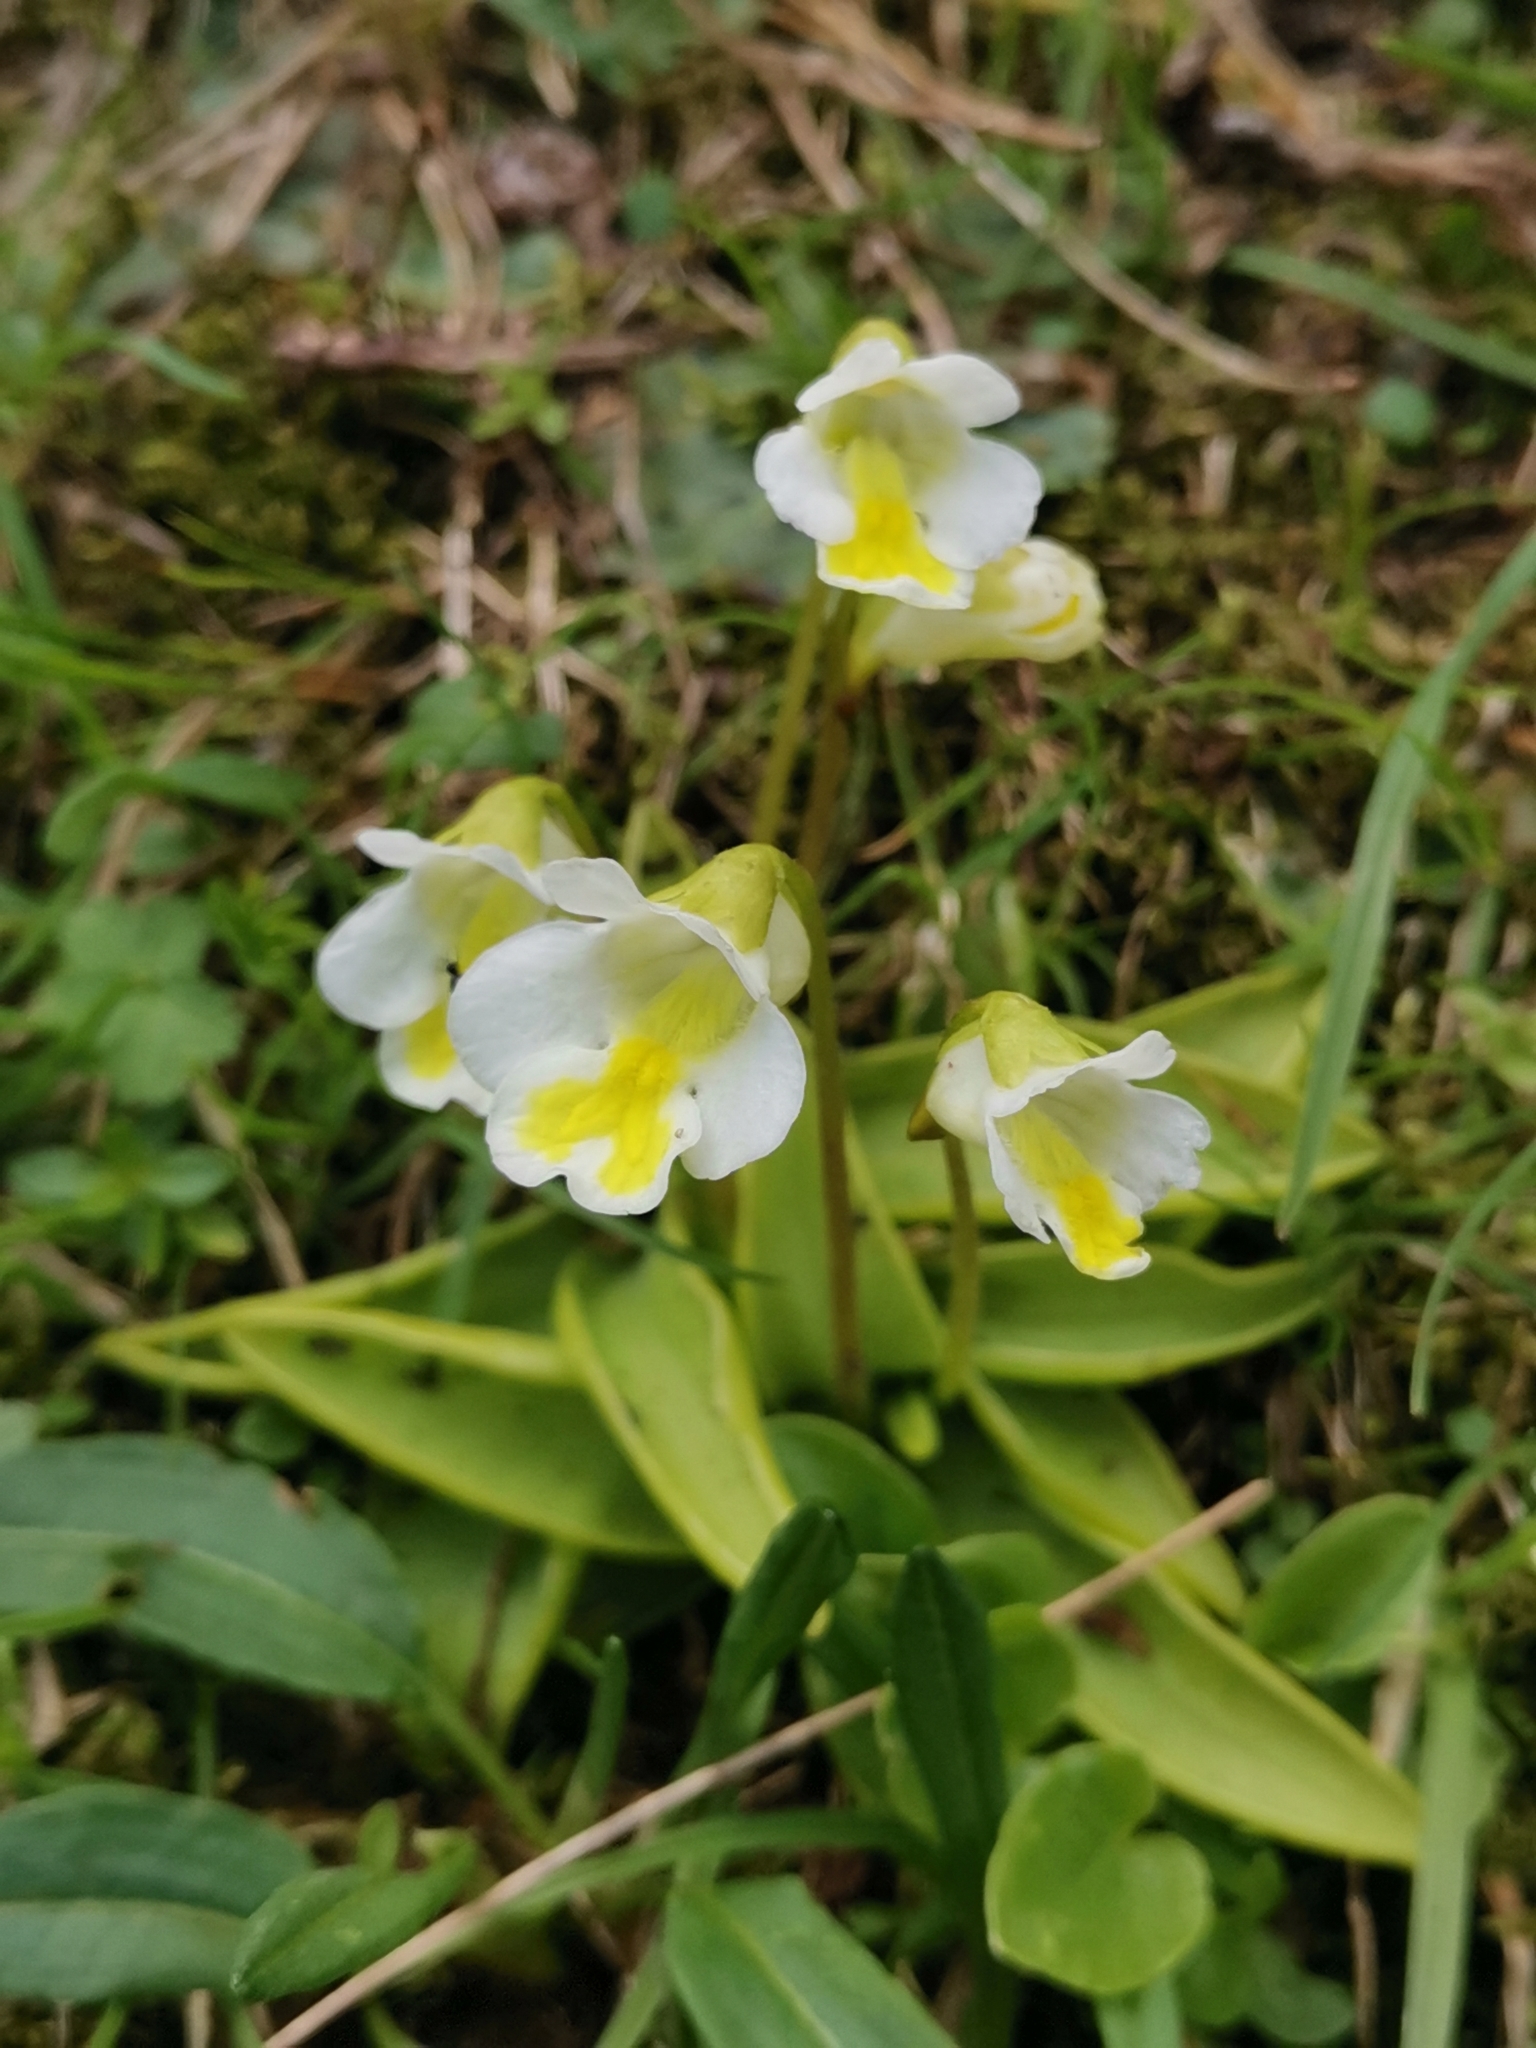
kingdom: Plantae
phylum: Tracheophyta
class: Magnoliopsida
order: Lamiales
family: Lentibulariaceae
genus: Pinguicula
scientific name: Pinguicula alpina
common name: Alpine butterwort
